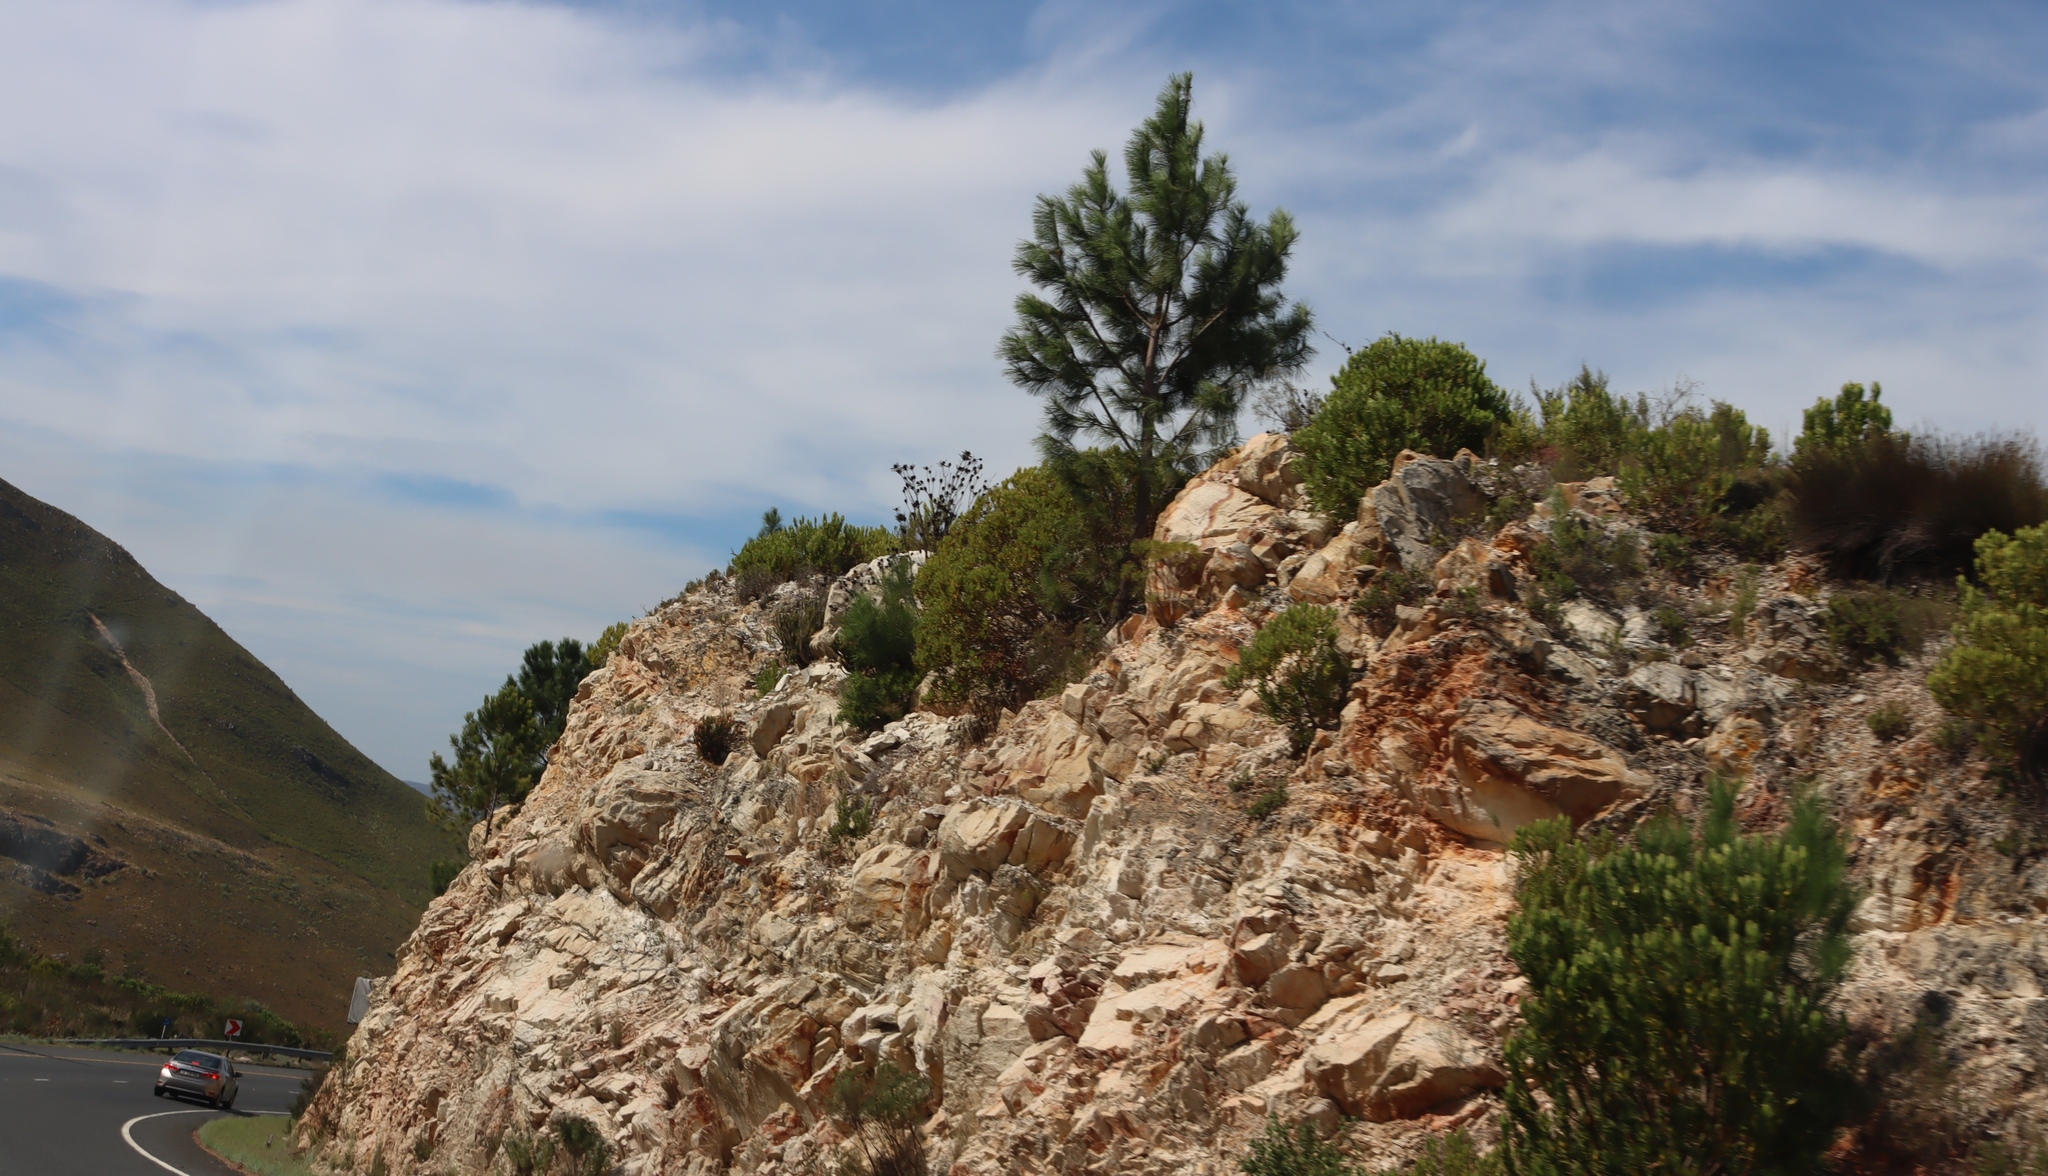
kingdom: Plantae
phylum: Tracheophyta
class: Pinopsida
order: Pinales
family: Pinaceae
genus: Pinus
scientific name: Pinus pinaster
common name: Maritime pine
